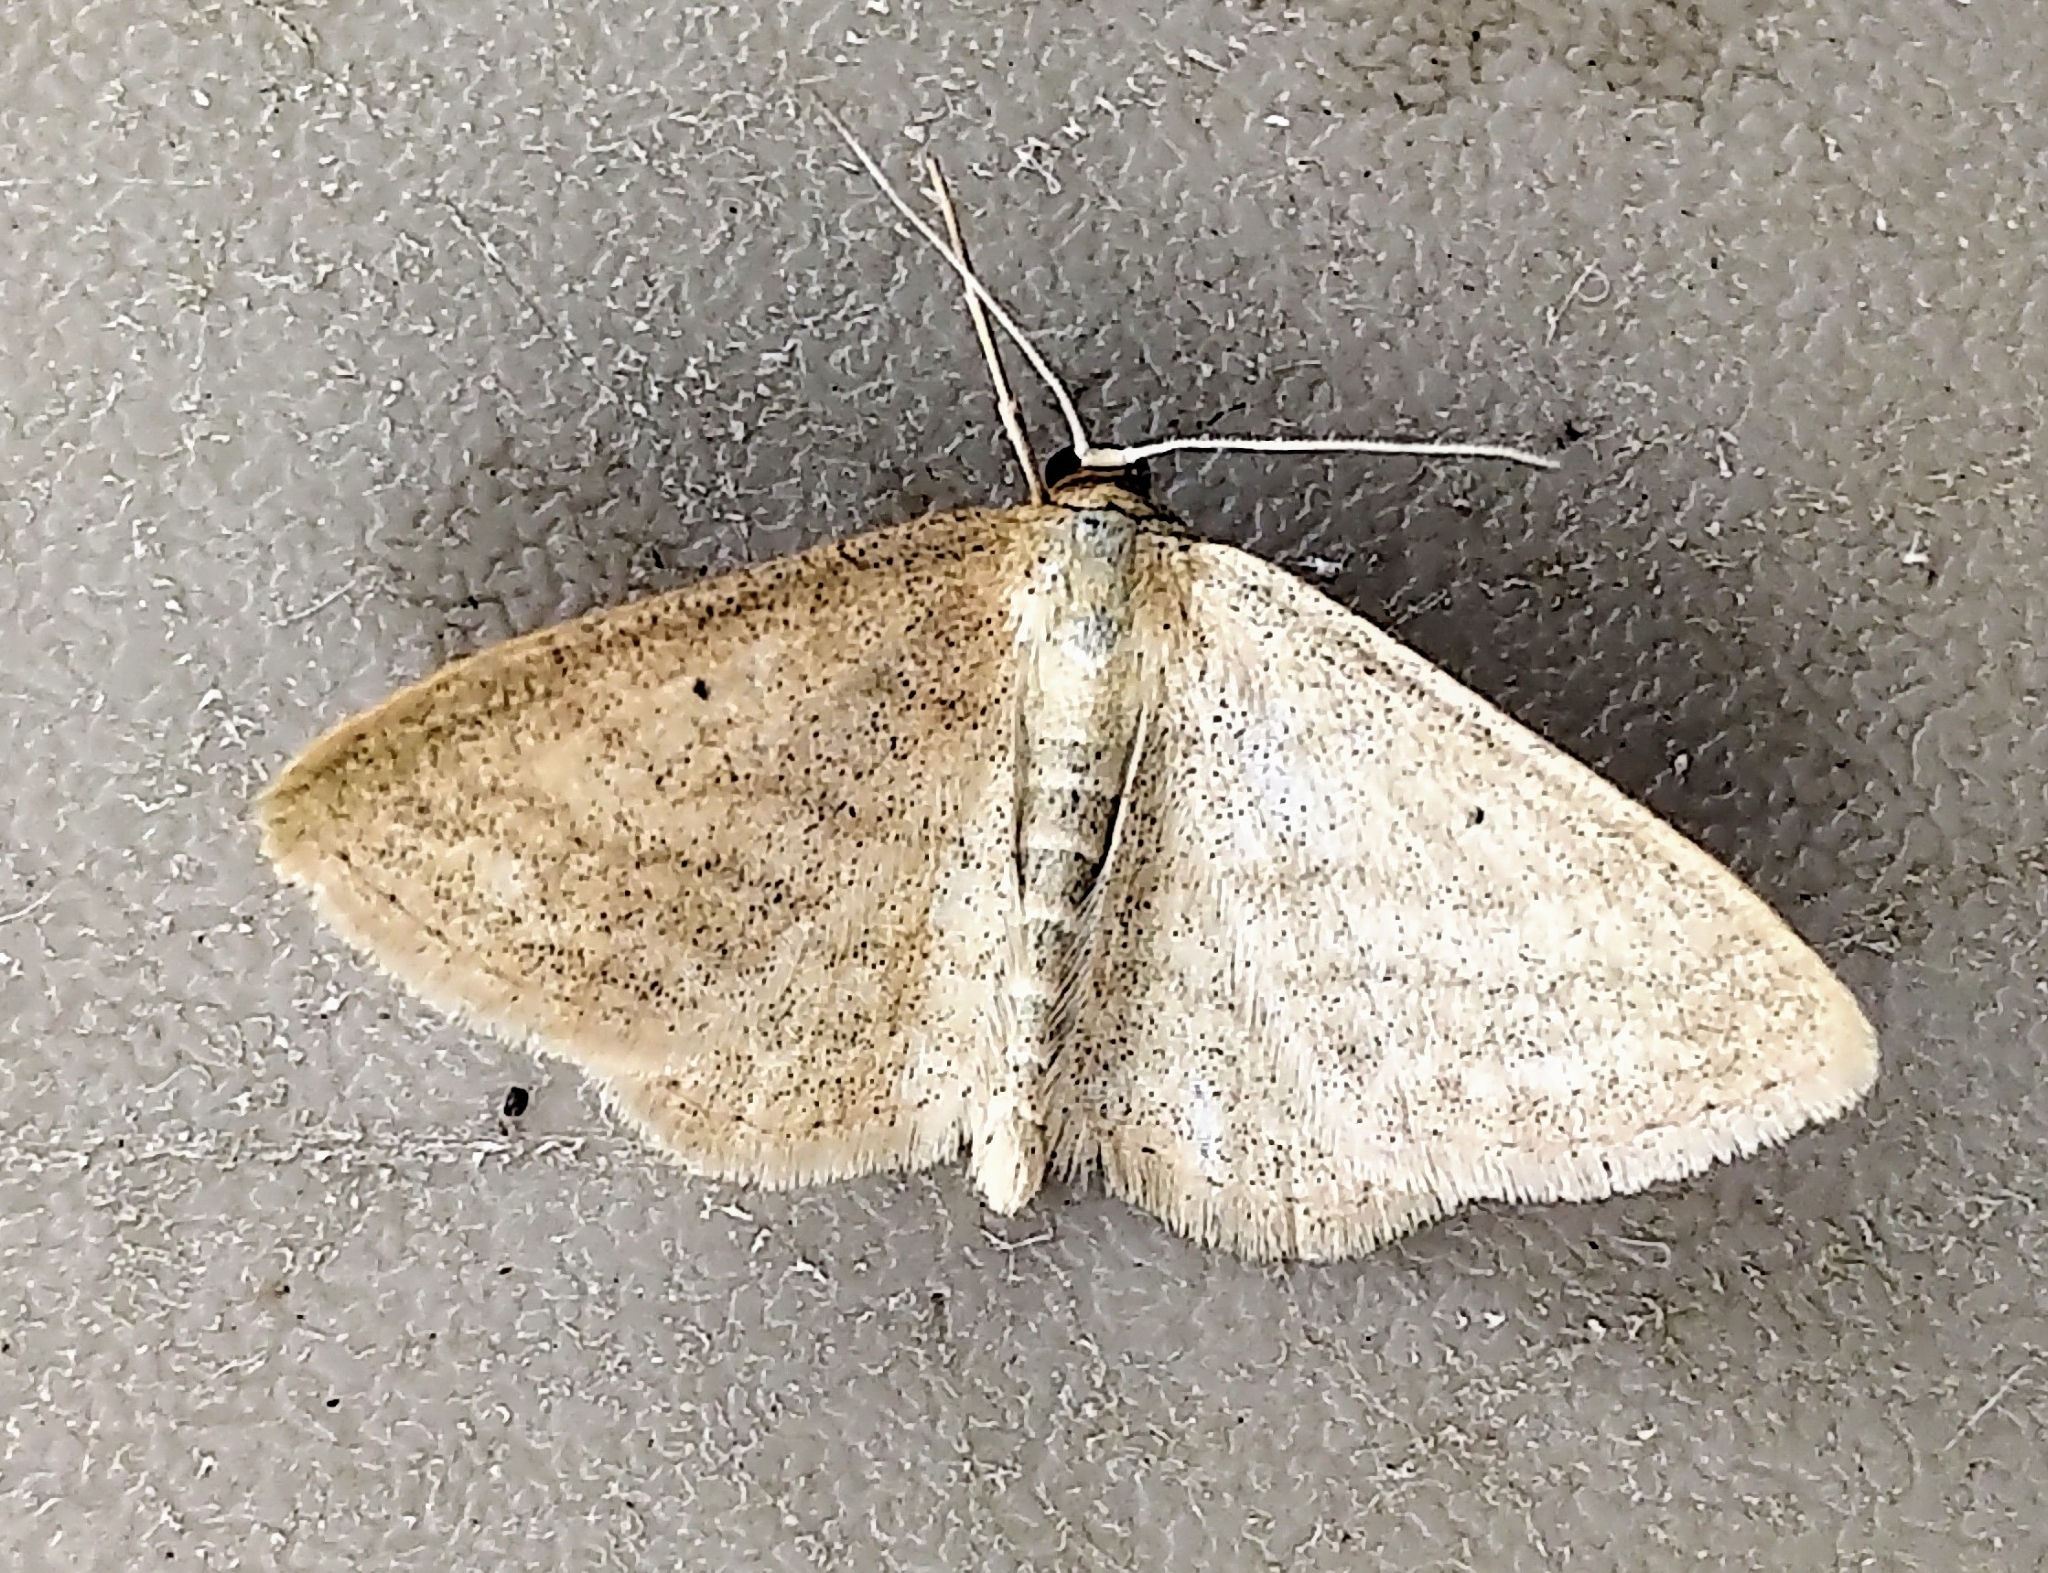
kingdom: Animalia
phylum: Arthropoda
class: Insecta
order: Lepidoptera
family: Geometridae
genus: Scopula
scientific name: Scopula inductata
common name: Soft-lined wave
